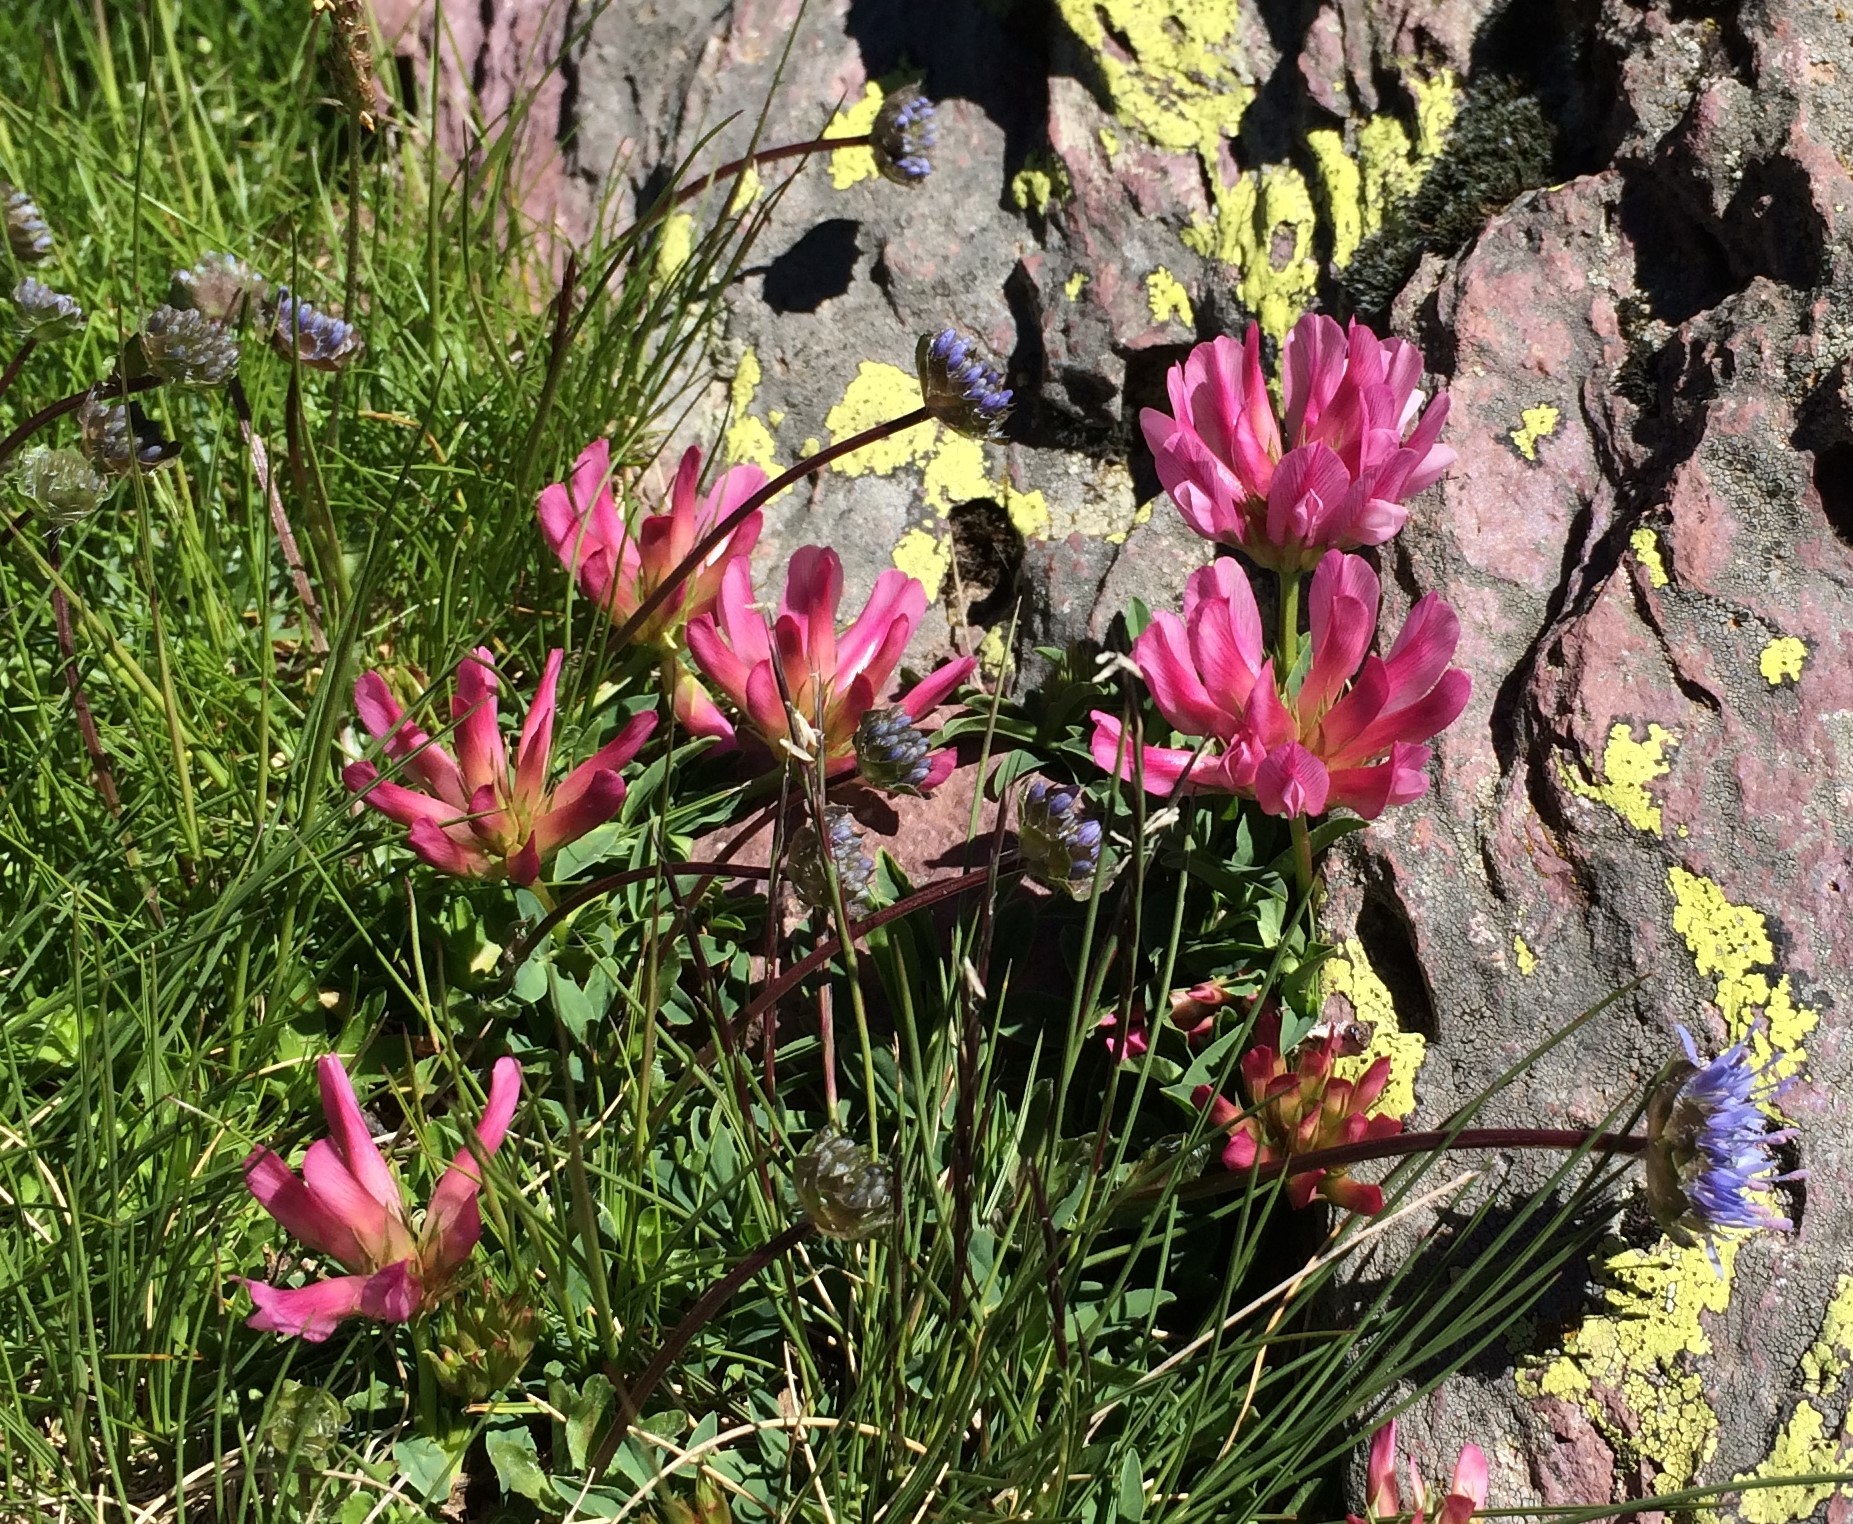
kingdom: Plantae
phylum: Tracheophyta
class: Magnoliopsida
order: Fabales
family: Fabaceae
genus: Trifolium
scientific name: Trifolium alpinum
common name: Alpine clover
